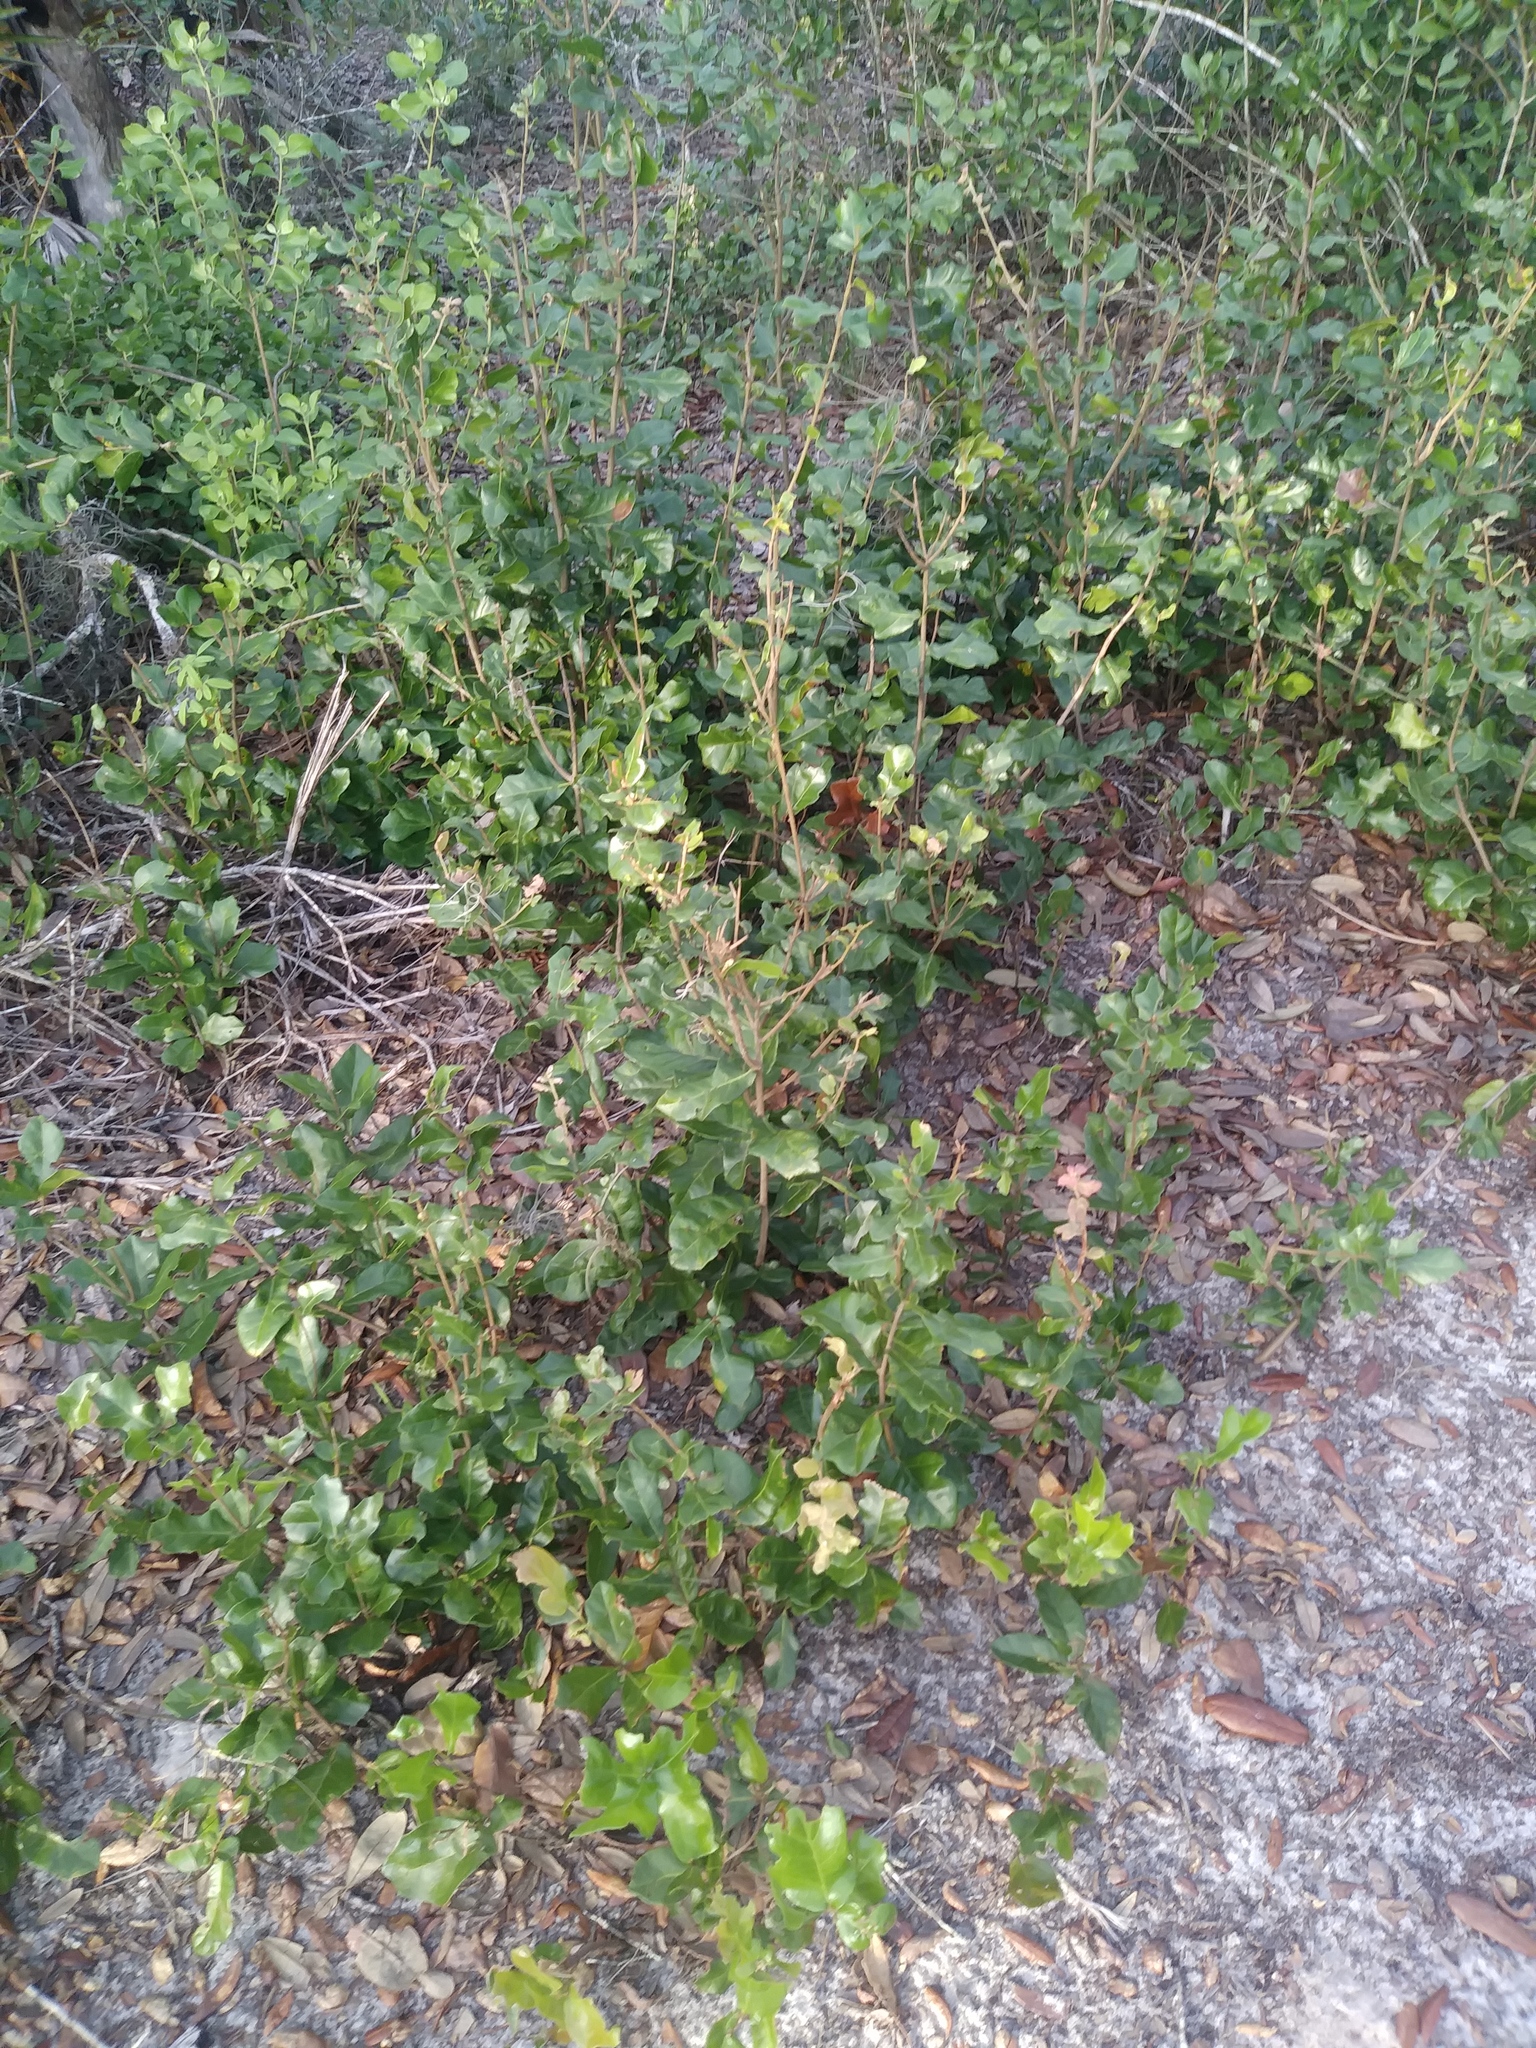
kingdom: Plantae
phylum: Tracheophyta
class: Magnoliopsida
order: Fagales
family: Fagaceae
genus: Quercus
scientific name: Quercus minima
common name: Dwarf live oak
